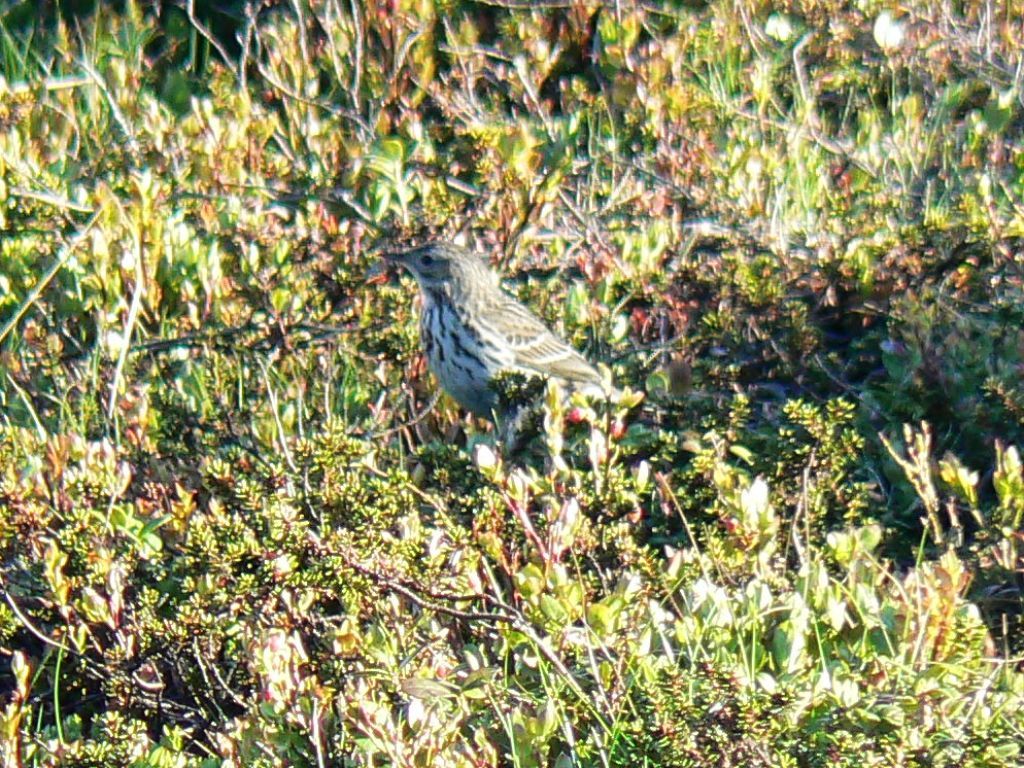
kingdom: Animalia
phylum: Chordata
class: Aves
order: Passeriformes
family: Motacillidae
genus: Anthus
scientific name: Anthus cervinus
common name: Red-throated pipit
